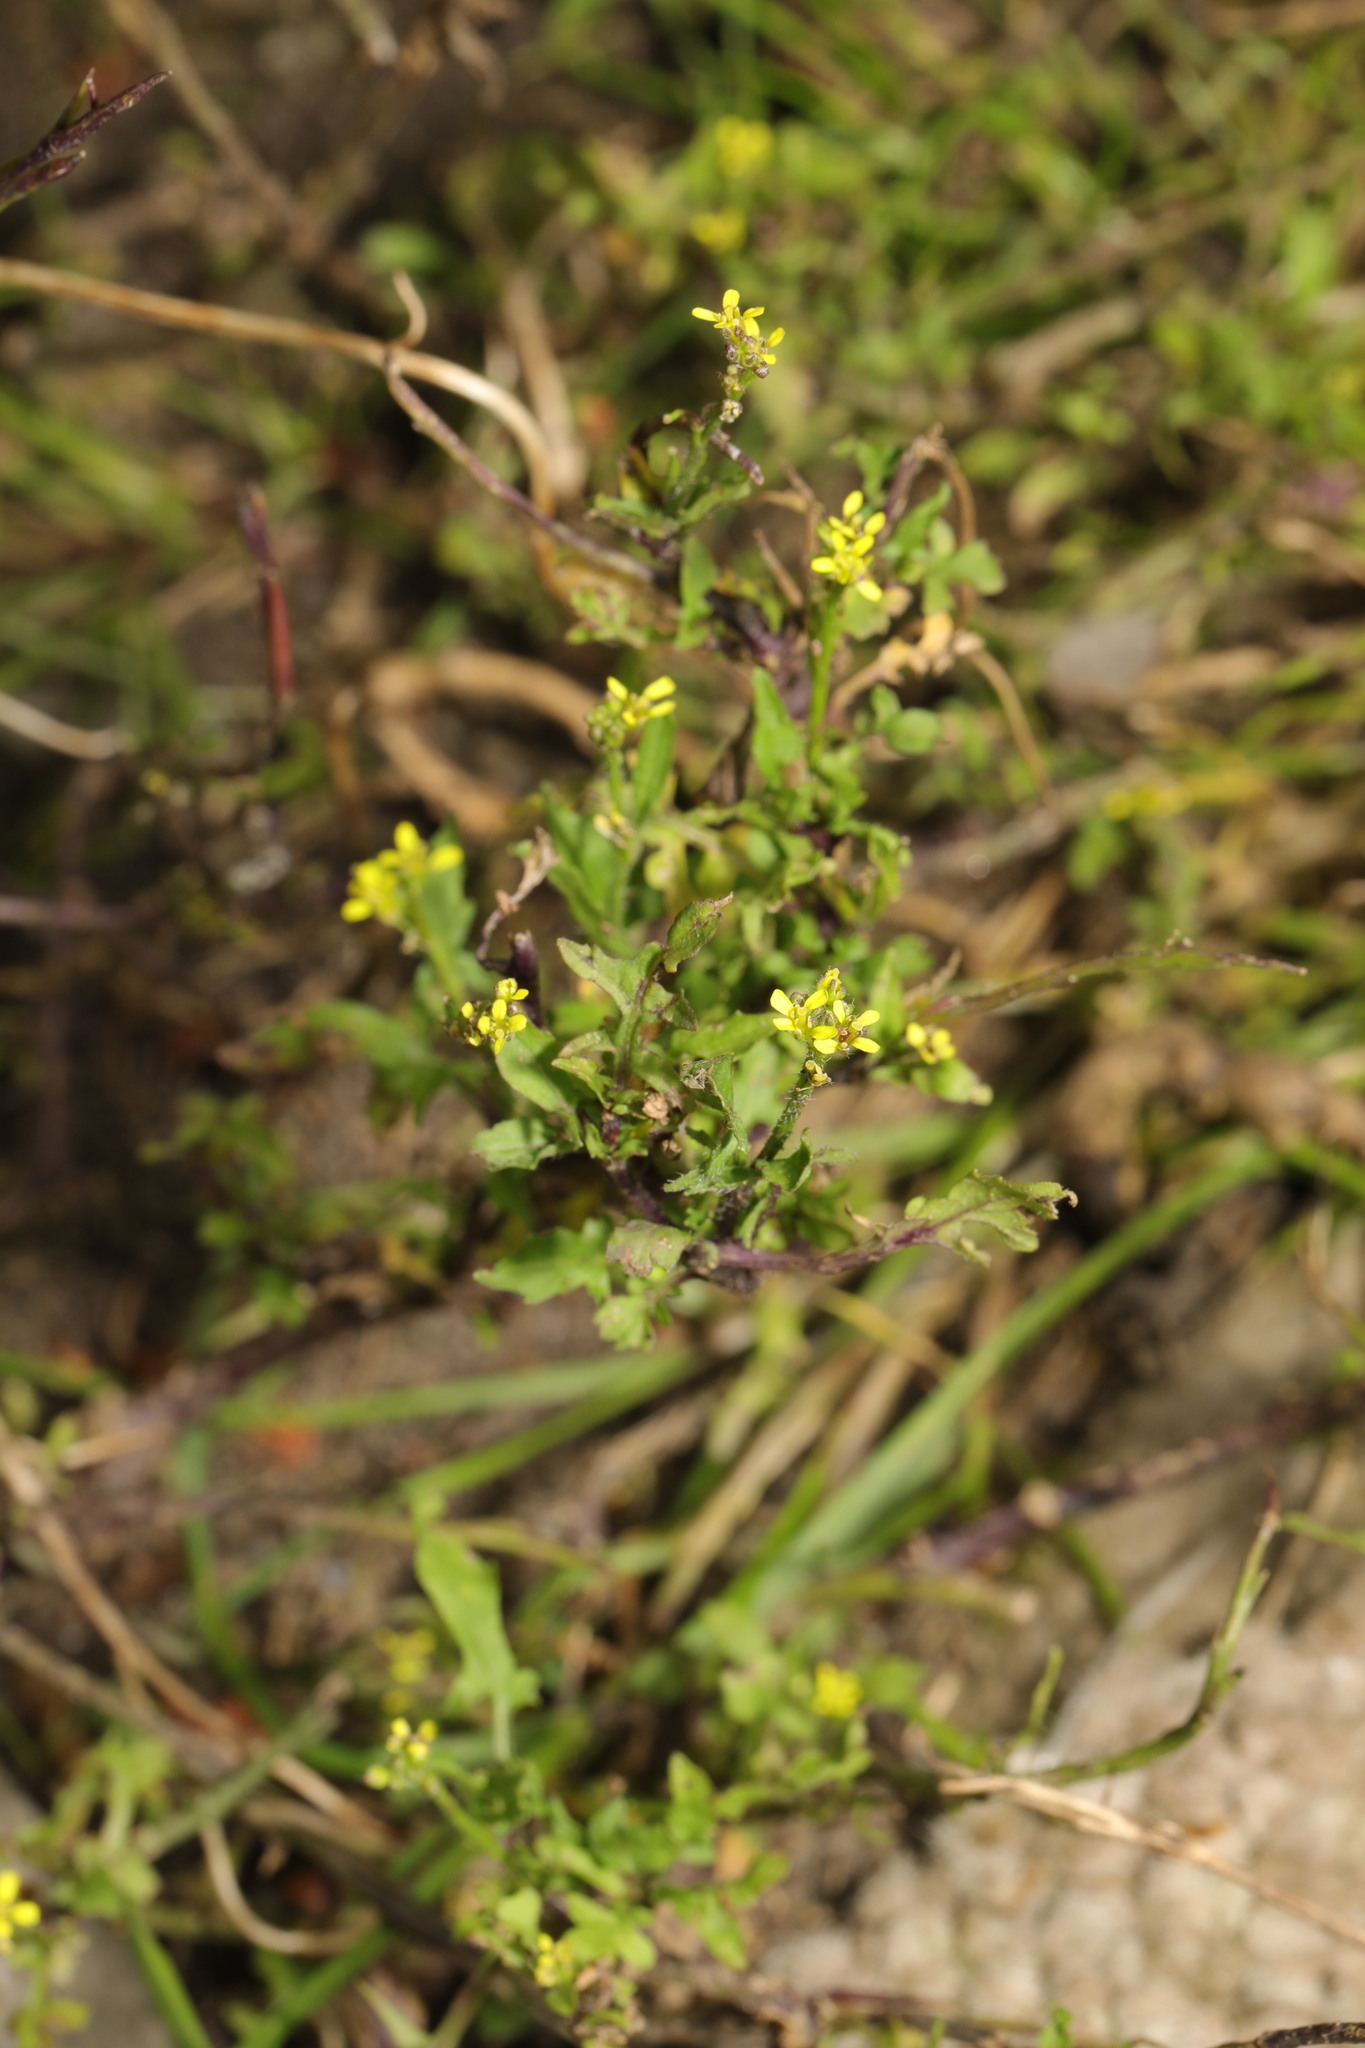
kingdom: Plantae
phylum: Tracheophyta
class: Magnoliopsida
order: Brassicales
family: Brassicaceae
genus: Sisymbrium
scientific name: Sisymbrium officinale
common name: Hedge mustard
